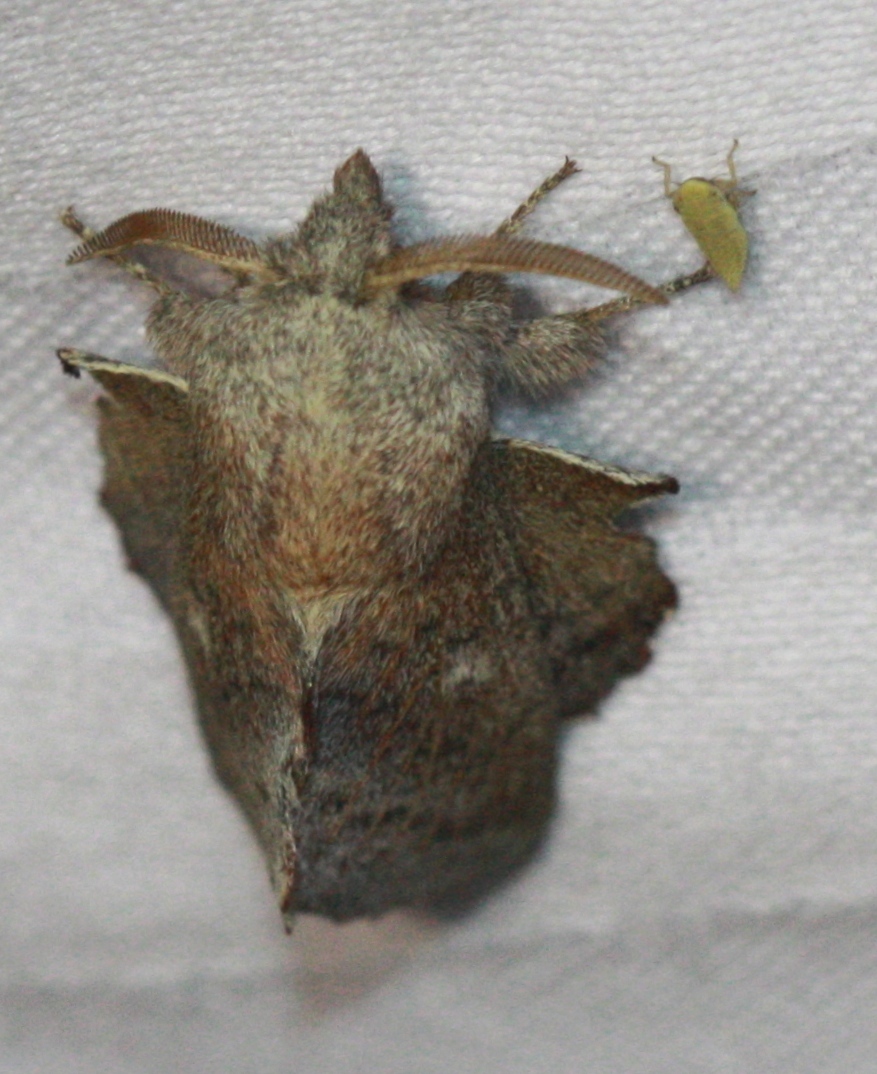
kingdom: Animalia
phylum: Arthropoda
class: Insecta
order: Lepidoptera
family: Lasiocampidae
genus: Phyllodesma
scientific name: Phyllodesma americana
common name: American lappet moth
